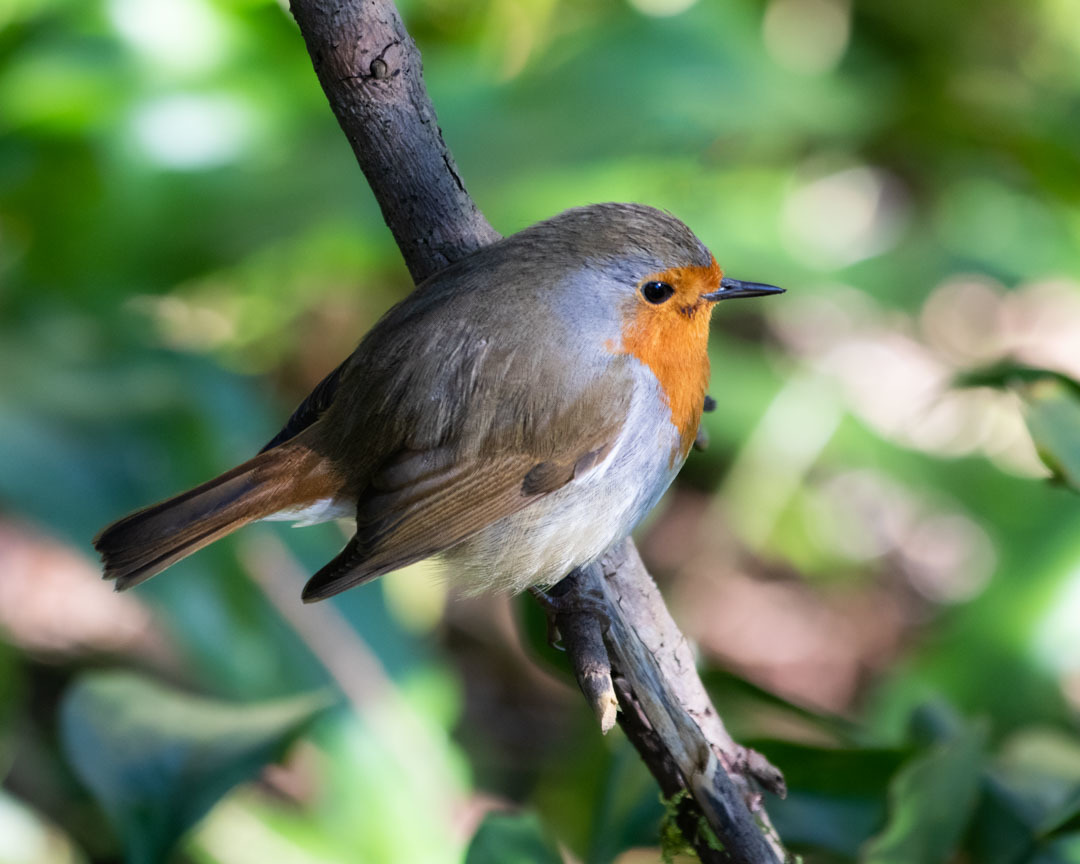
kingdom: Animalia
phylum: Chordata
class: Aves
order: Passeriformes
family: Muscicapidae
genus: Erithacus
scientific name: Erithacus rubecula
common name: European robin
